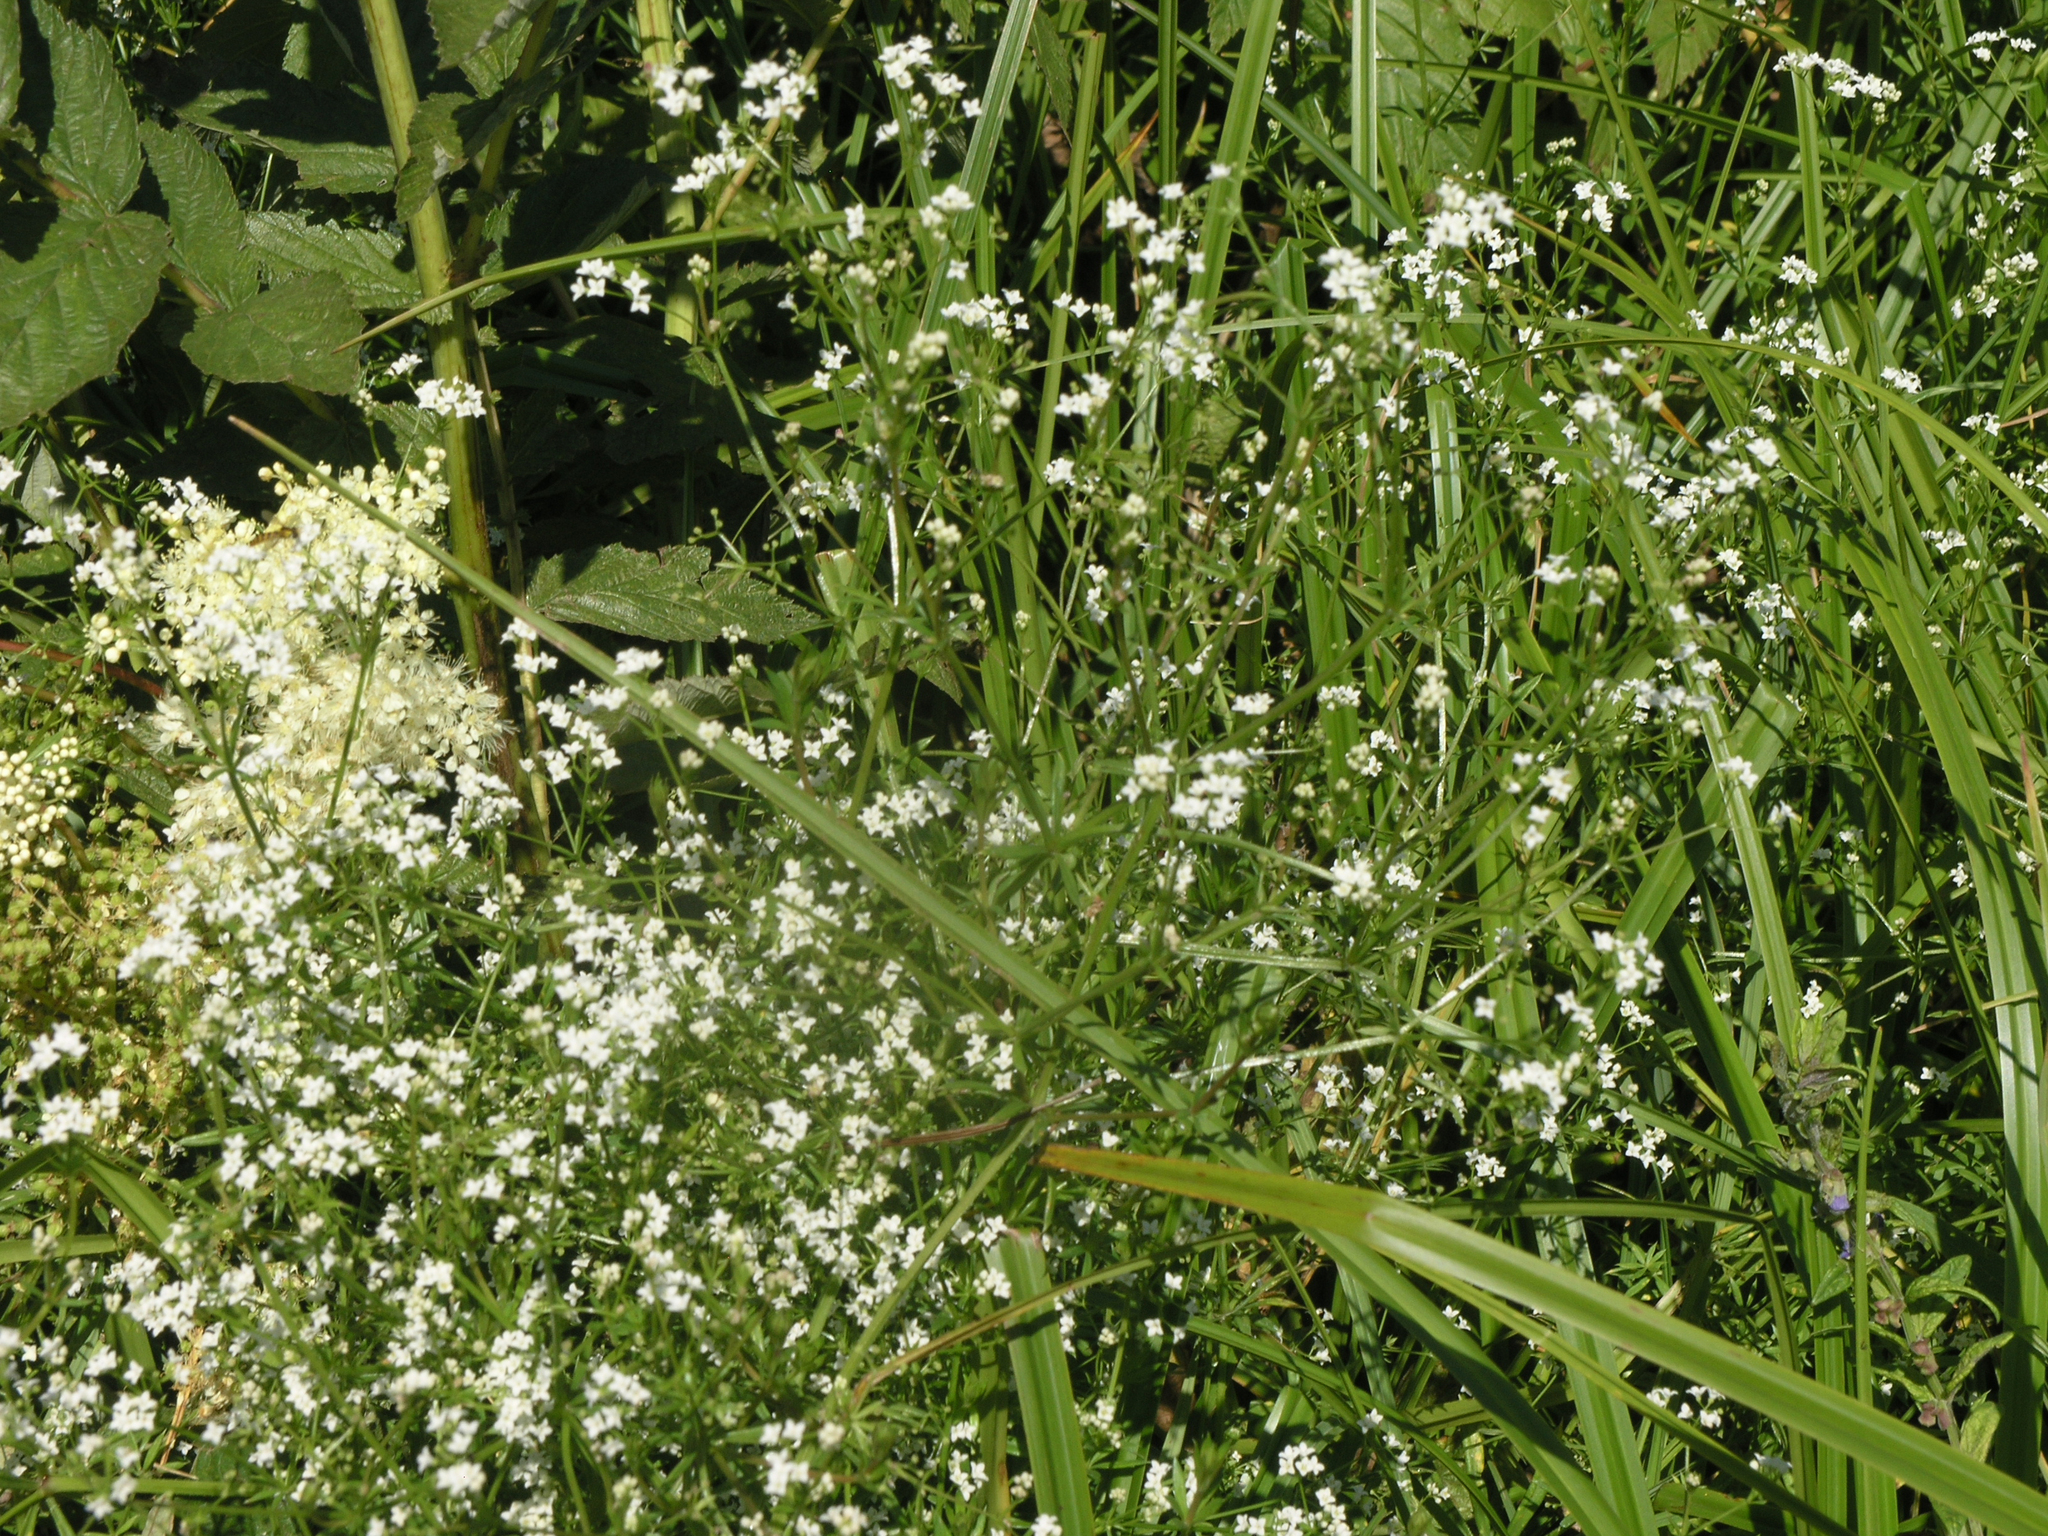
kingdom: Plantae
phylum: Tracheophyta
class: Magnoliopsida
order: Gentianales
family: Rubiaceae
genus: Galium
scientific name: Galium uliginosum
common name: Fen bedstraw
